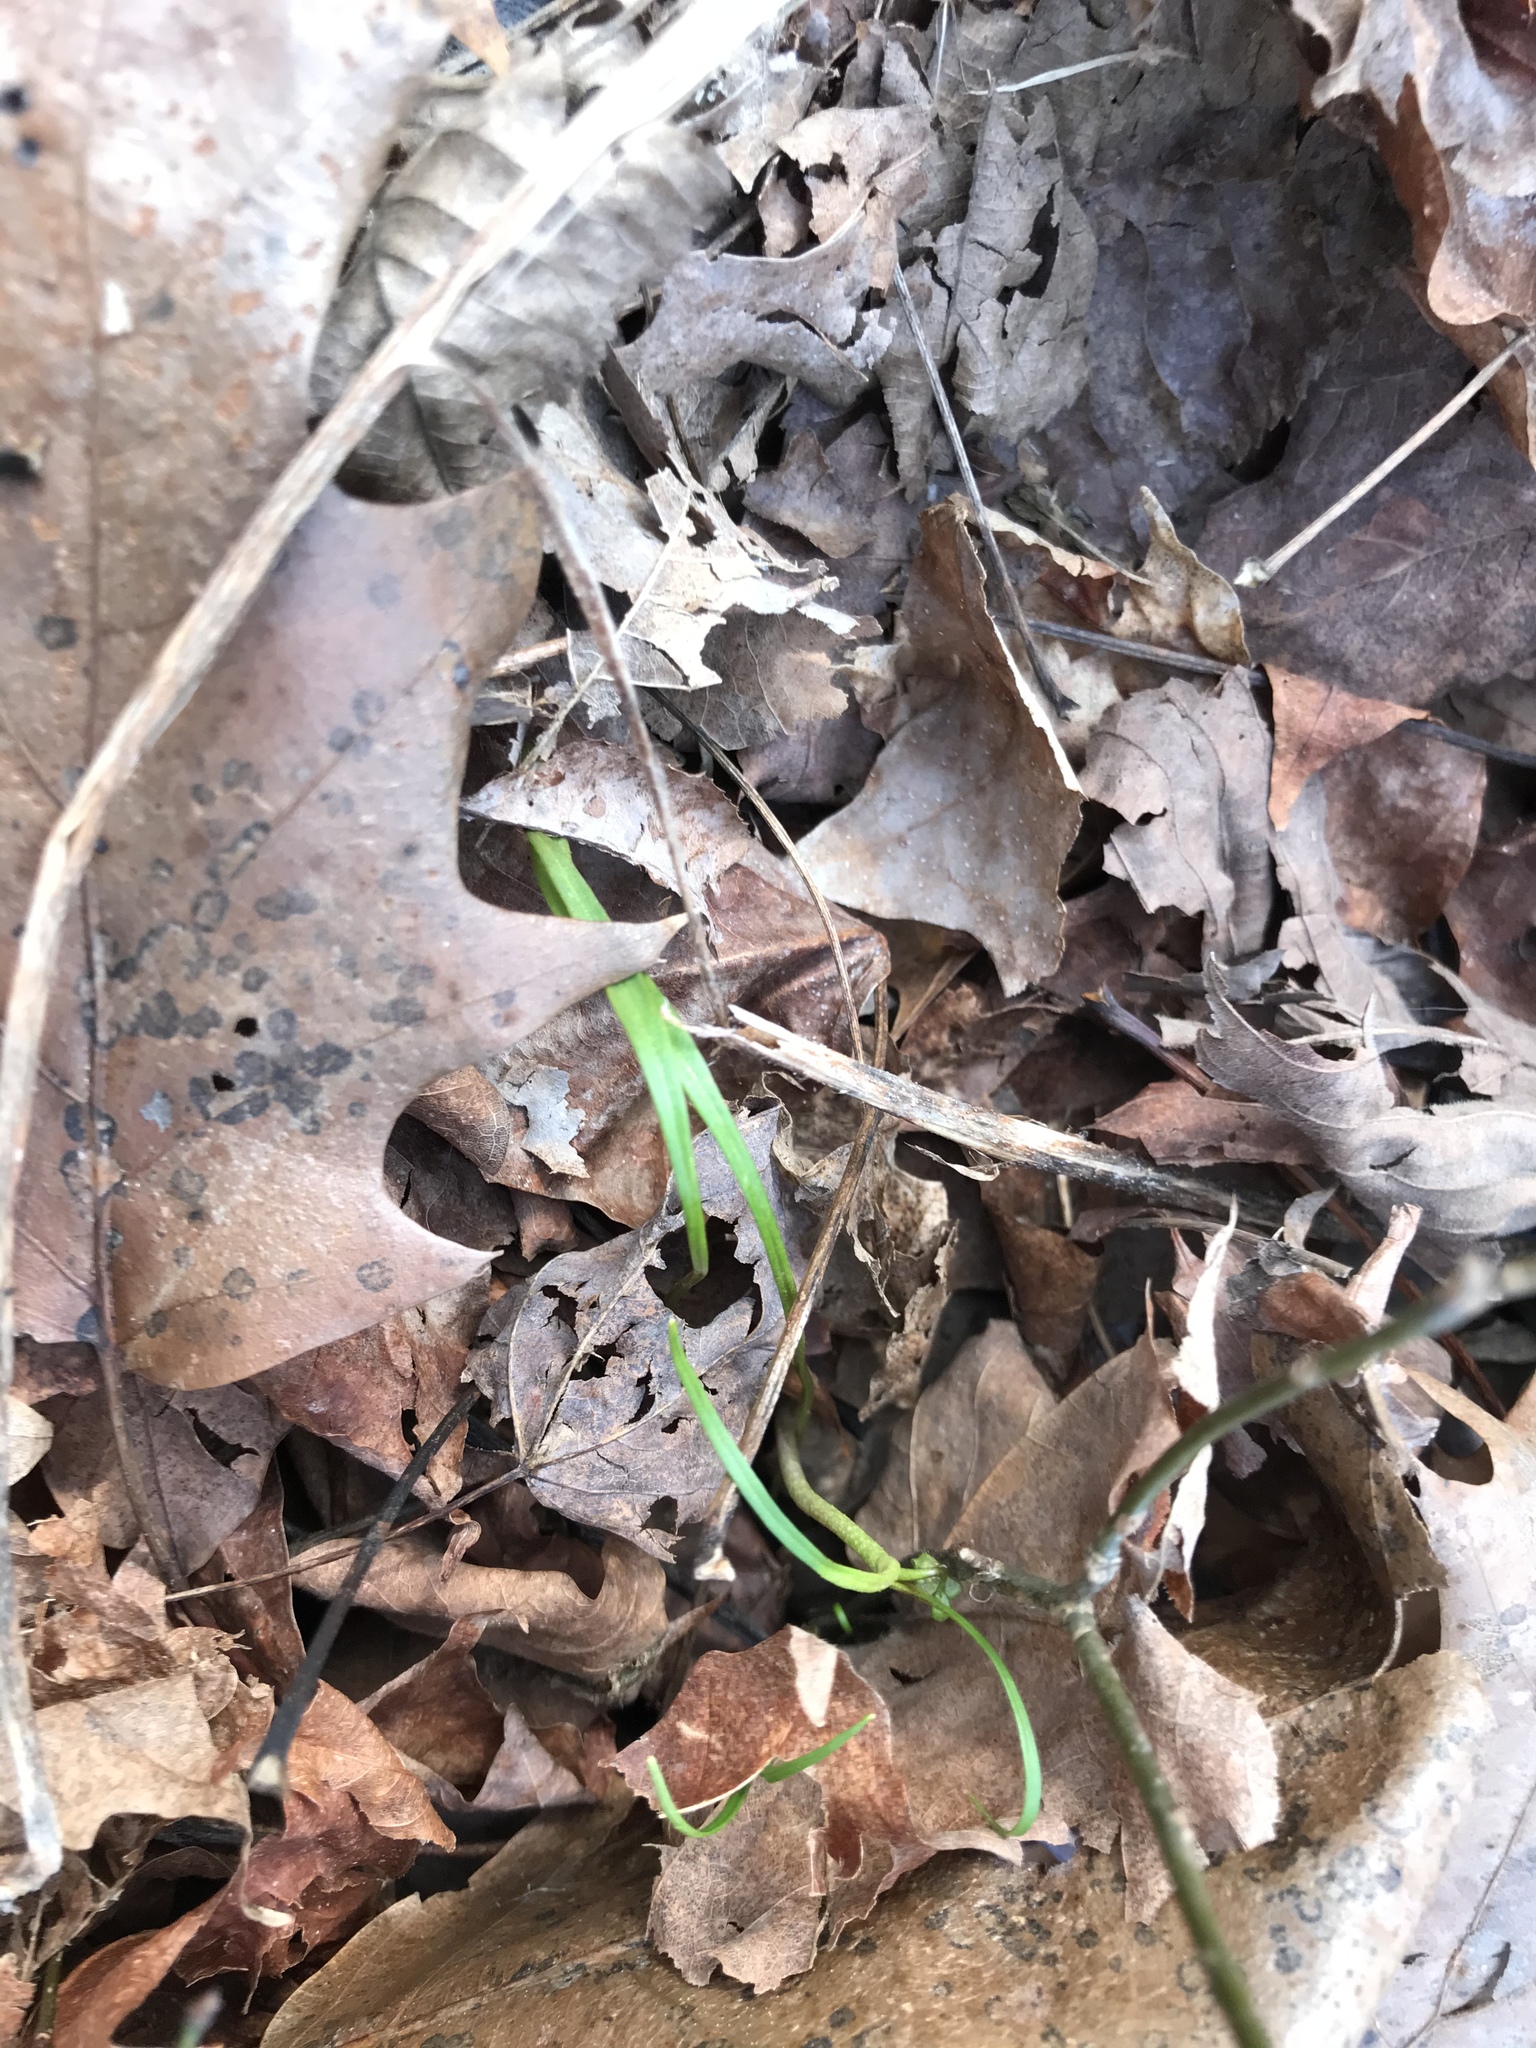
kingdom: Plantae
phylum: Tracheophyta
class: Magnoliopsida
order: Caryophyllales
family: Montiaceae
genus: Claytonia
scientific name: Claytonia virginica
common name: Virginia springbeauty
